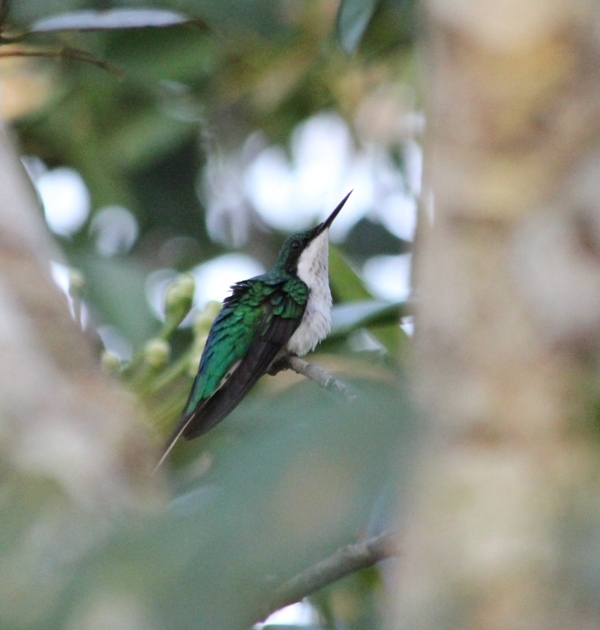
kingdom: Animalia
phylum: Chordata
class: Aves
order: Apodiformes
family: Trochilidae
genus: Heliothryx
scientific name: Heliothryx auritus
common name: Black-eared fairy
